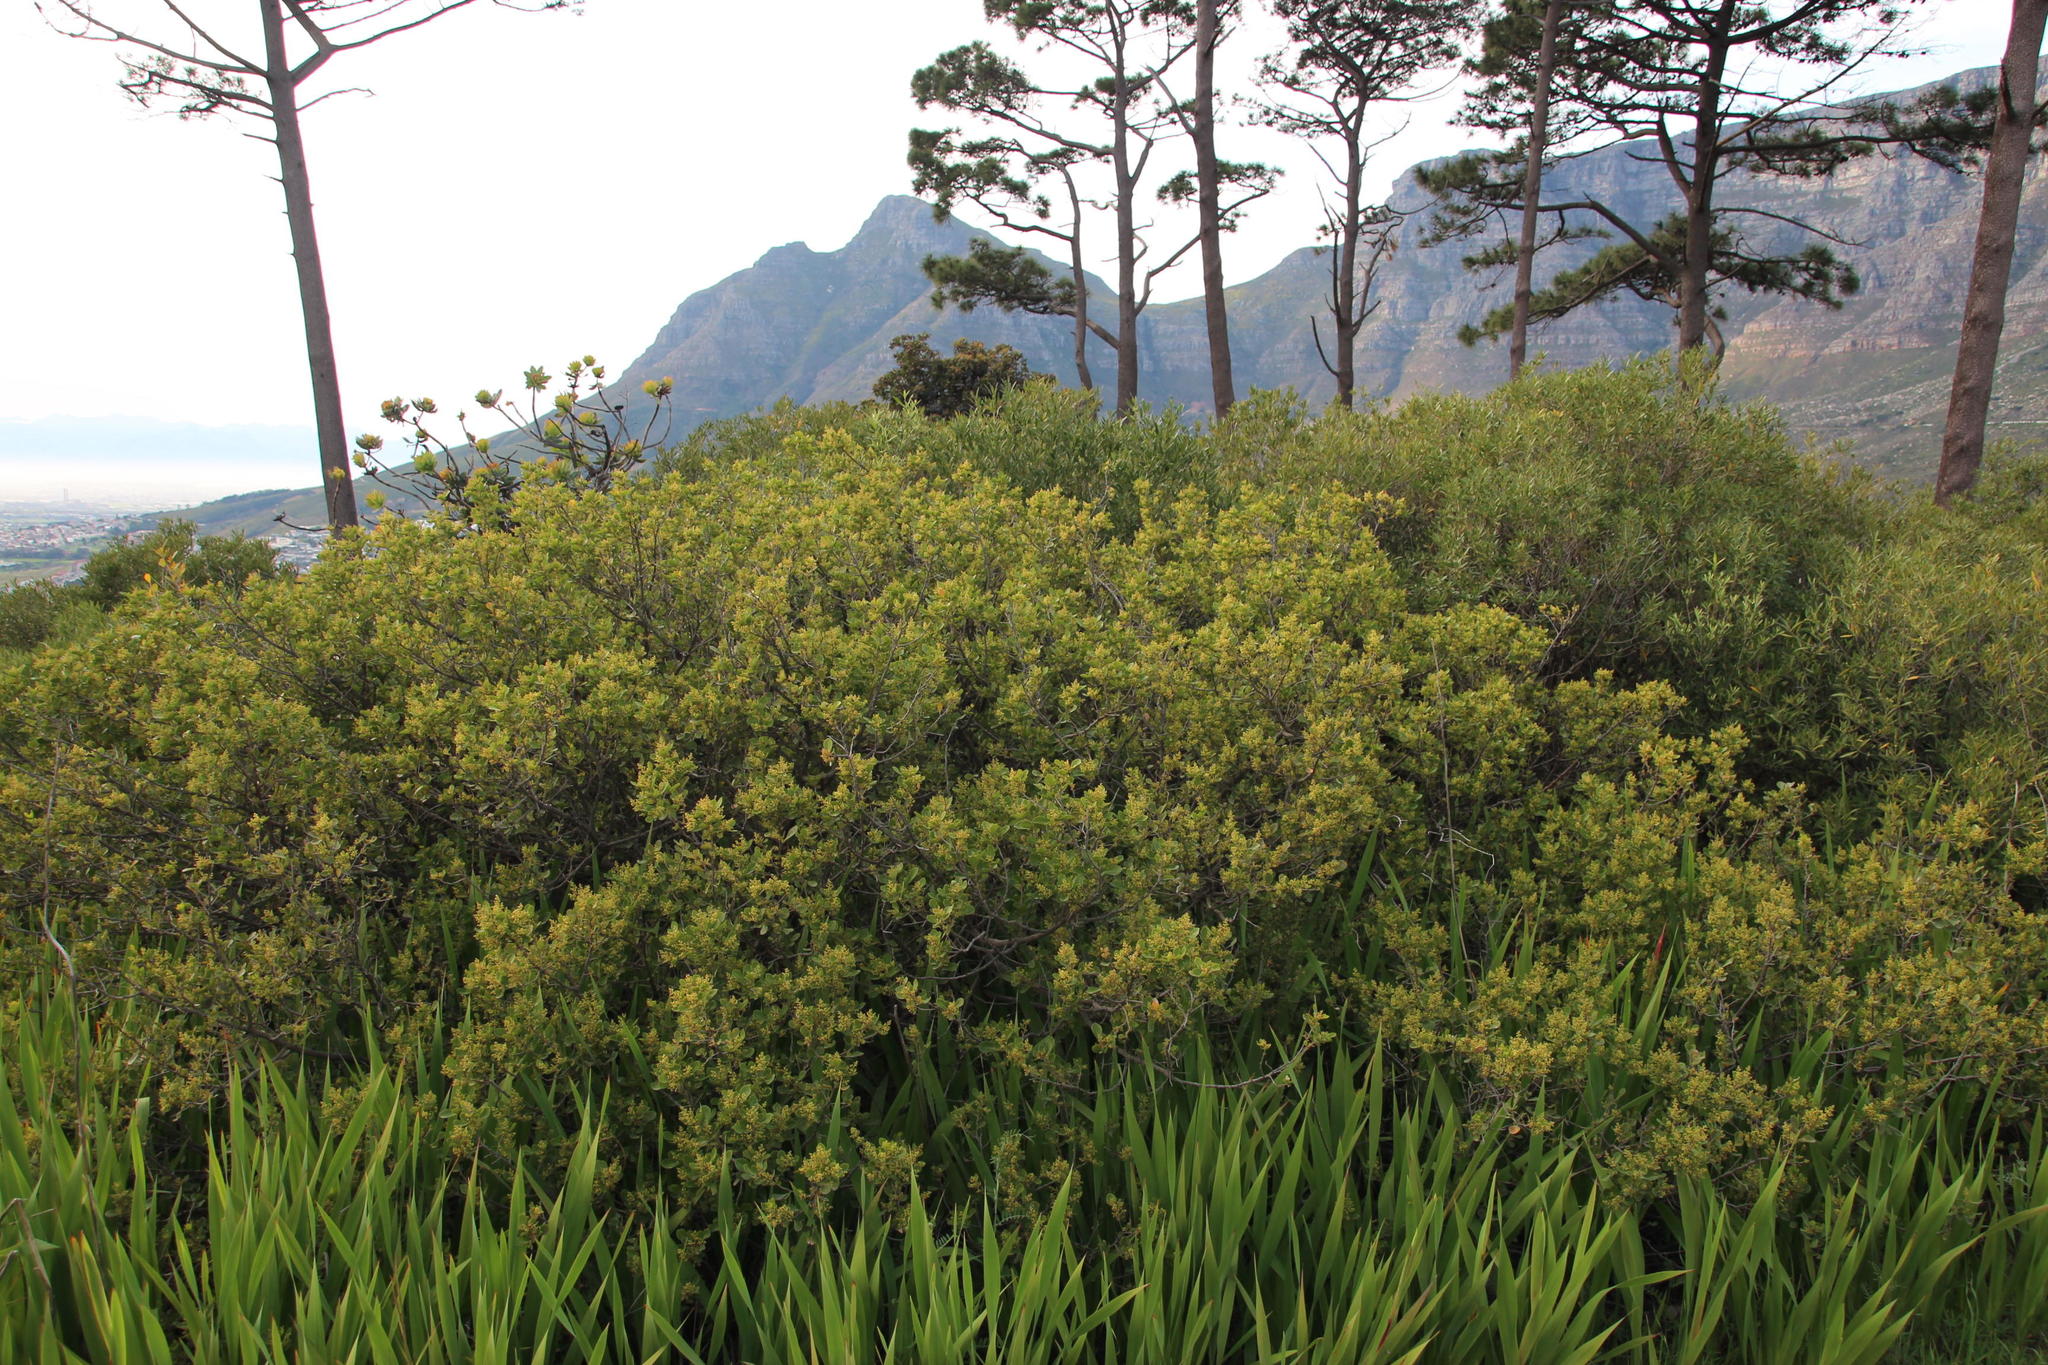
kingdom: Plantae
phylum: Tracheophyta
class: Magnoliopsida
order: Sapindales
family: Anacardiaceae
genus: Searsia
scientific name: Searsia lucida
